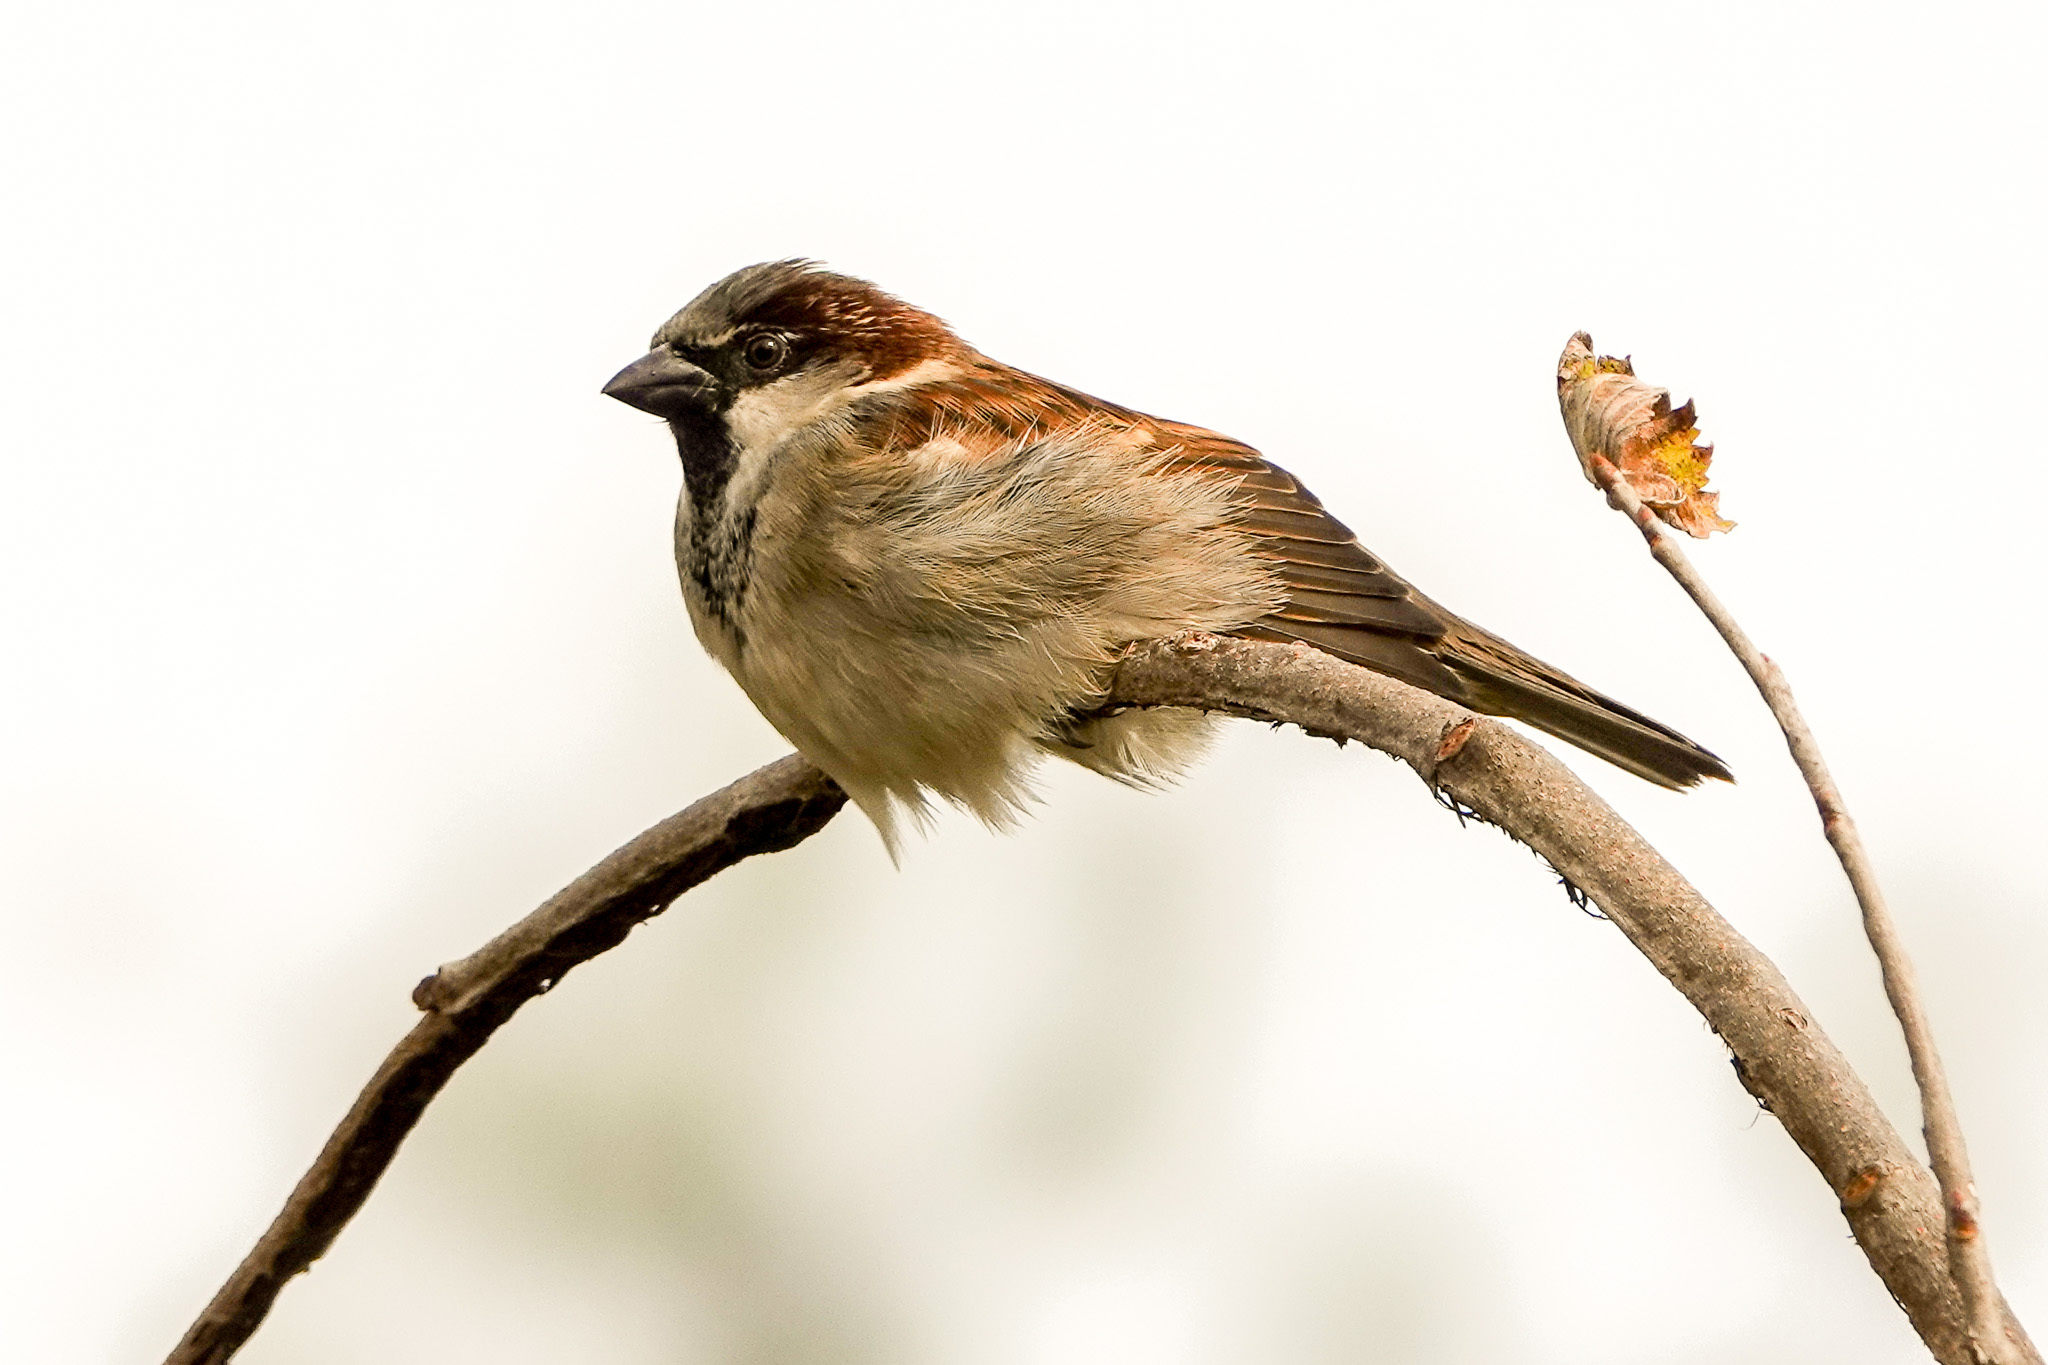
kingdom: Animalia
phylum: Chordata
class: Aves
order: Passeriformes
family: Passeridae
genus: Passer
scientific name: Passer domesticus
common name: House sparrow
